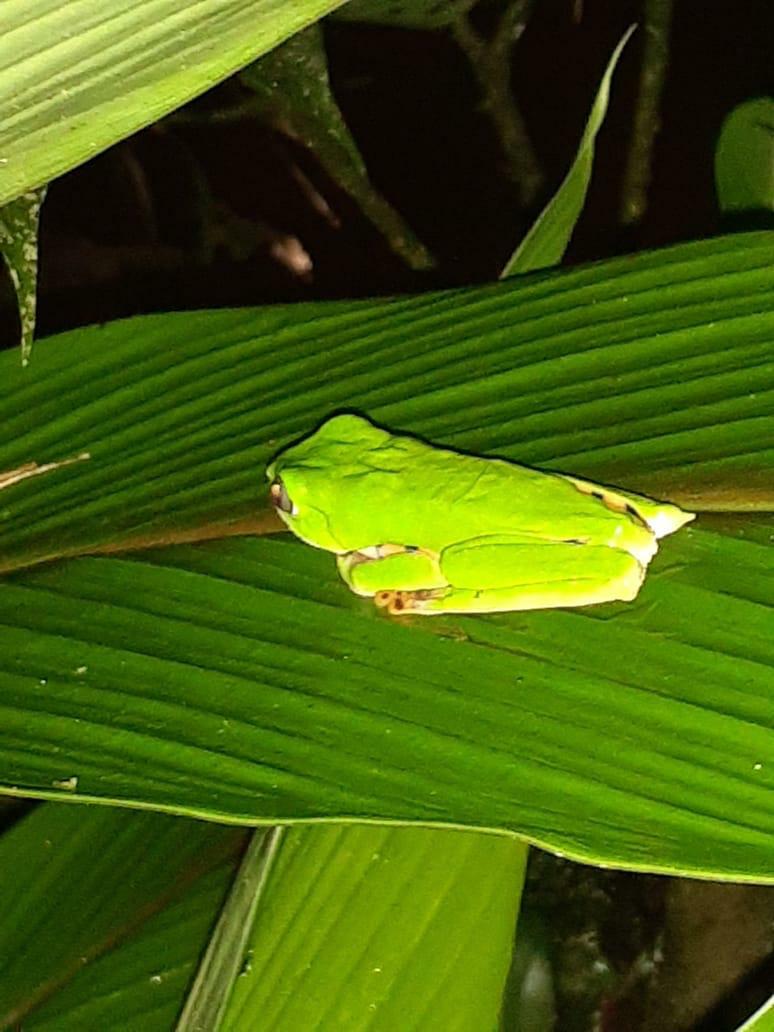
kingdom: Animalia
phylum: Chordata
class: Amphibia
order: Anura
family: Phyllomedusidae
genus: Callimedusa
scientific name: Callimedusa tomopterna
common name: Tiger-striped leaf frog
